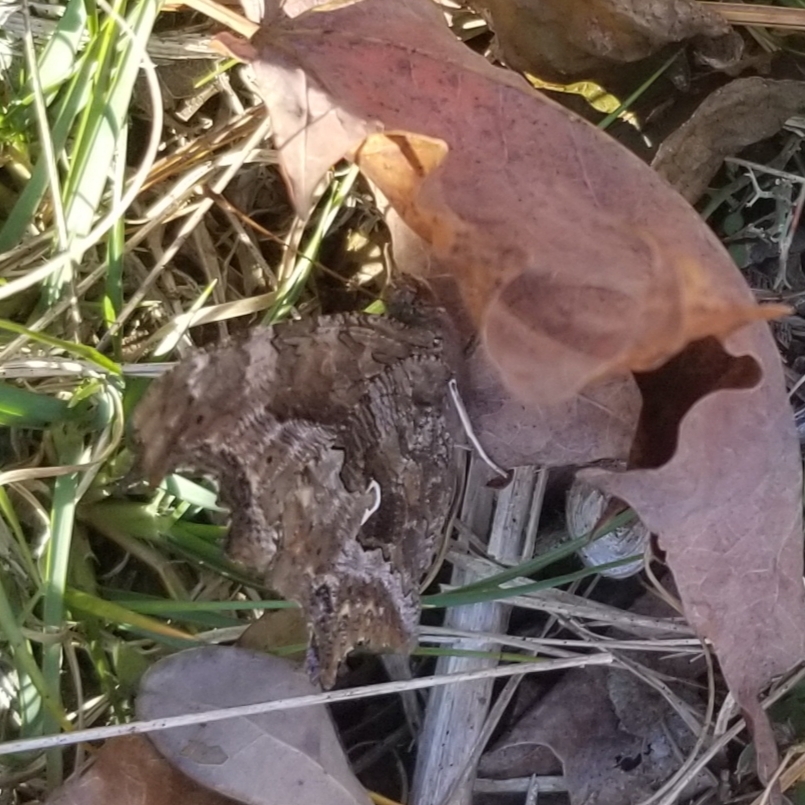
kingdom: Animalia
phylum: Arthropoda
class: Insecta
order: Lepidoptera
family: Nymphalidae
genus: Polygonia
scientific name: Polygonia comma
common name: Eastern comma
